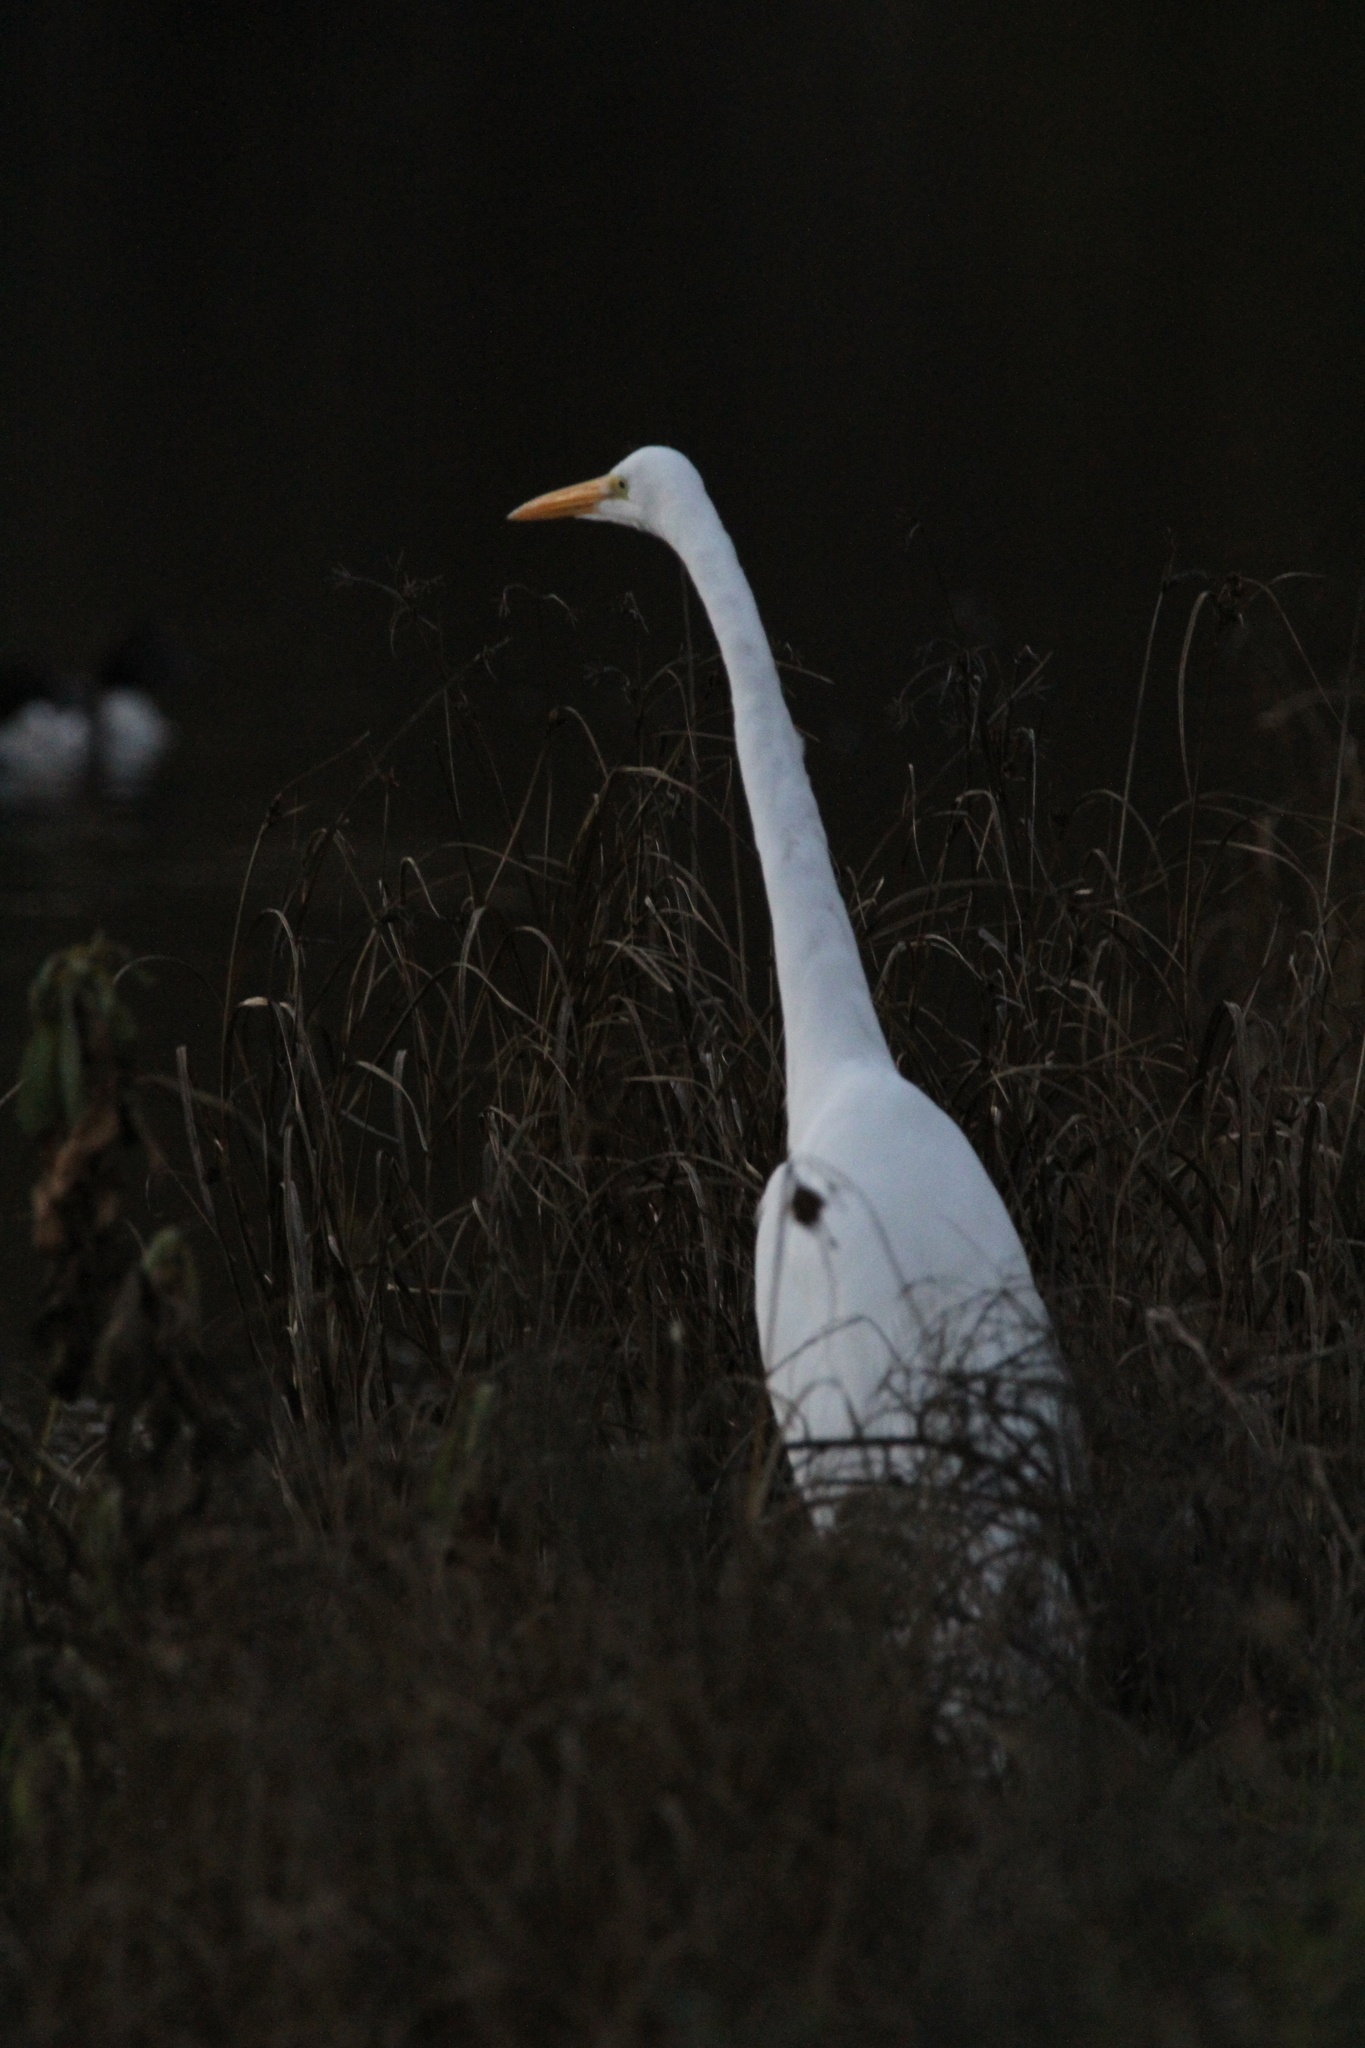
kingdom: Animalia
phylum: Chordata
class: Aves
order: Pelecaniformes
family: Ardeidae
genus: Ardea
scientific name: Ardea alba
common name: Great egret
